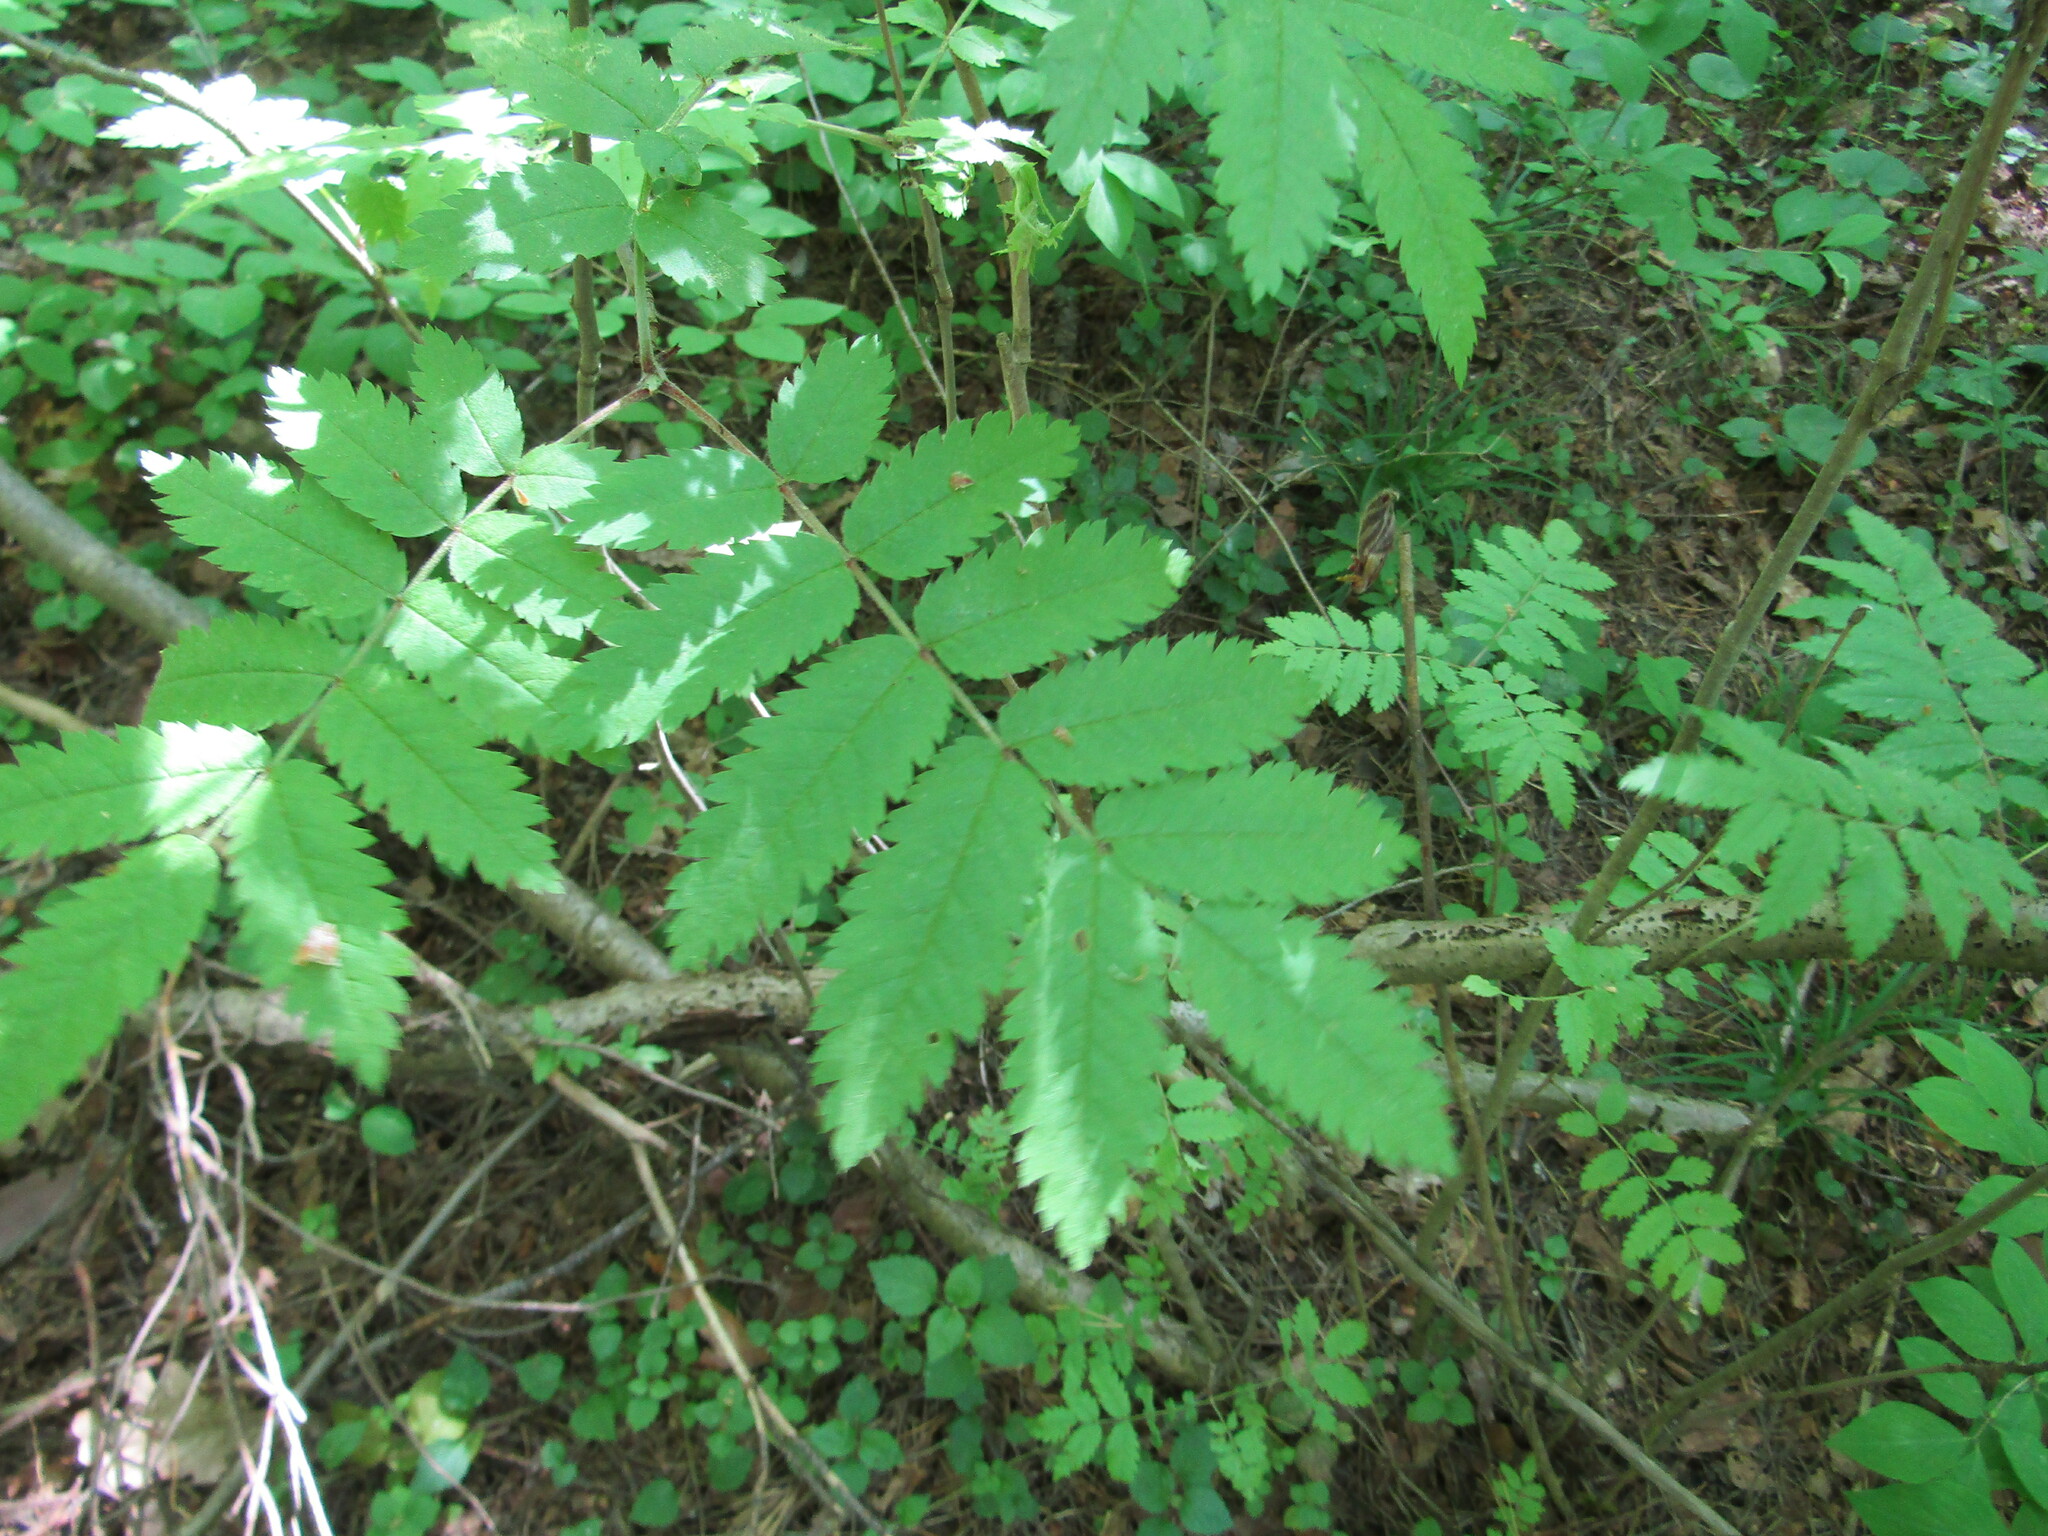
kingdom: Plantae
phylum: Tracheophyta
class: Magnoliopsida
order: Rosales
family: Rosaceae
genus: Sorbus
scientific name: Sorbus aucuparia
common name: Rowan
